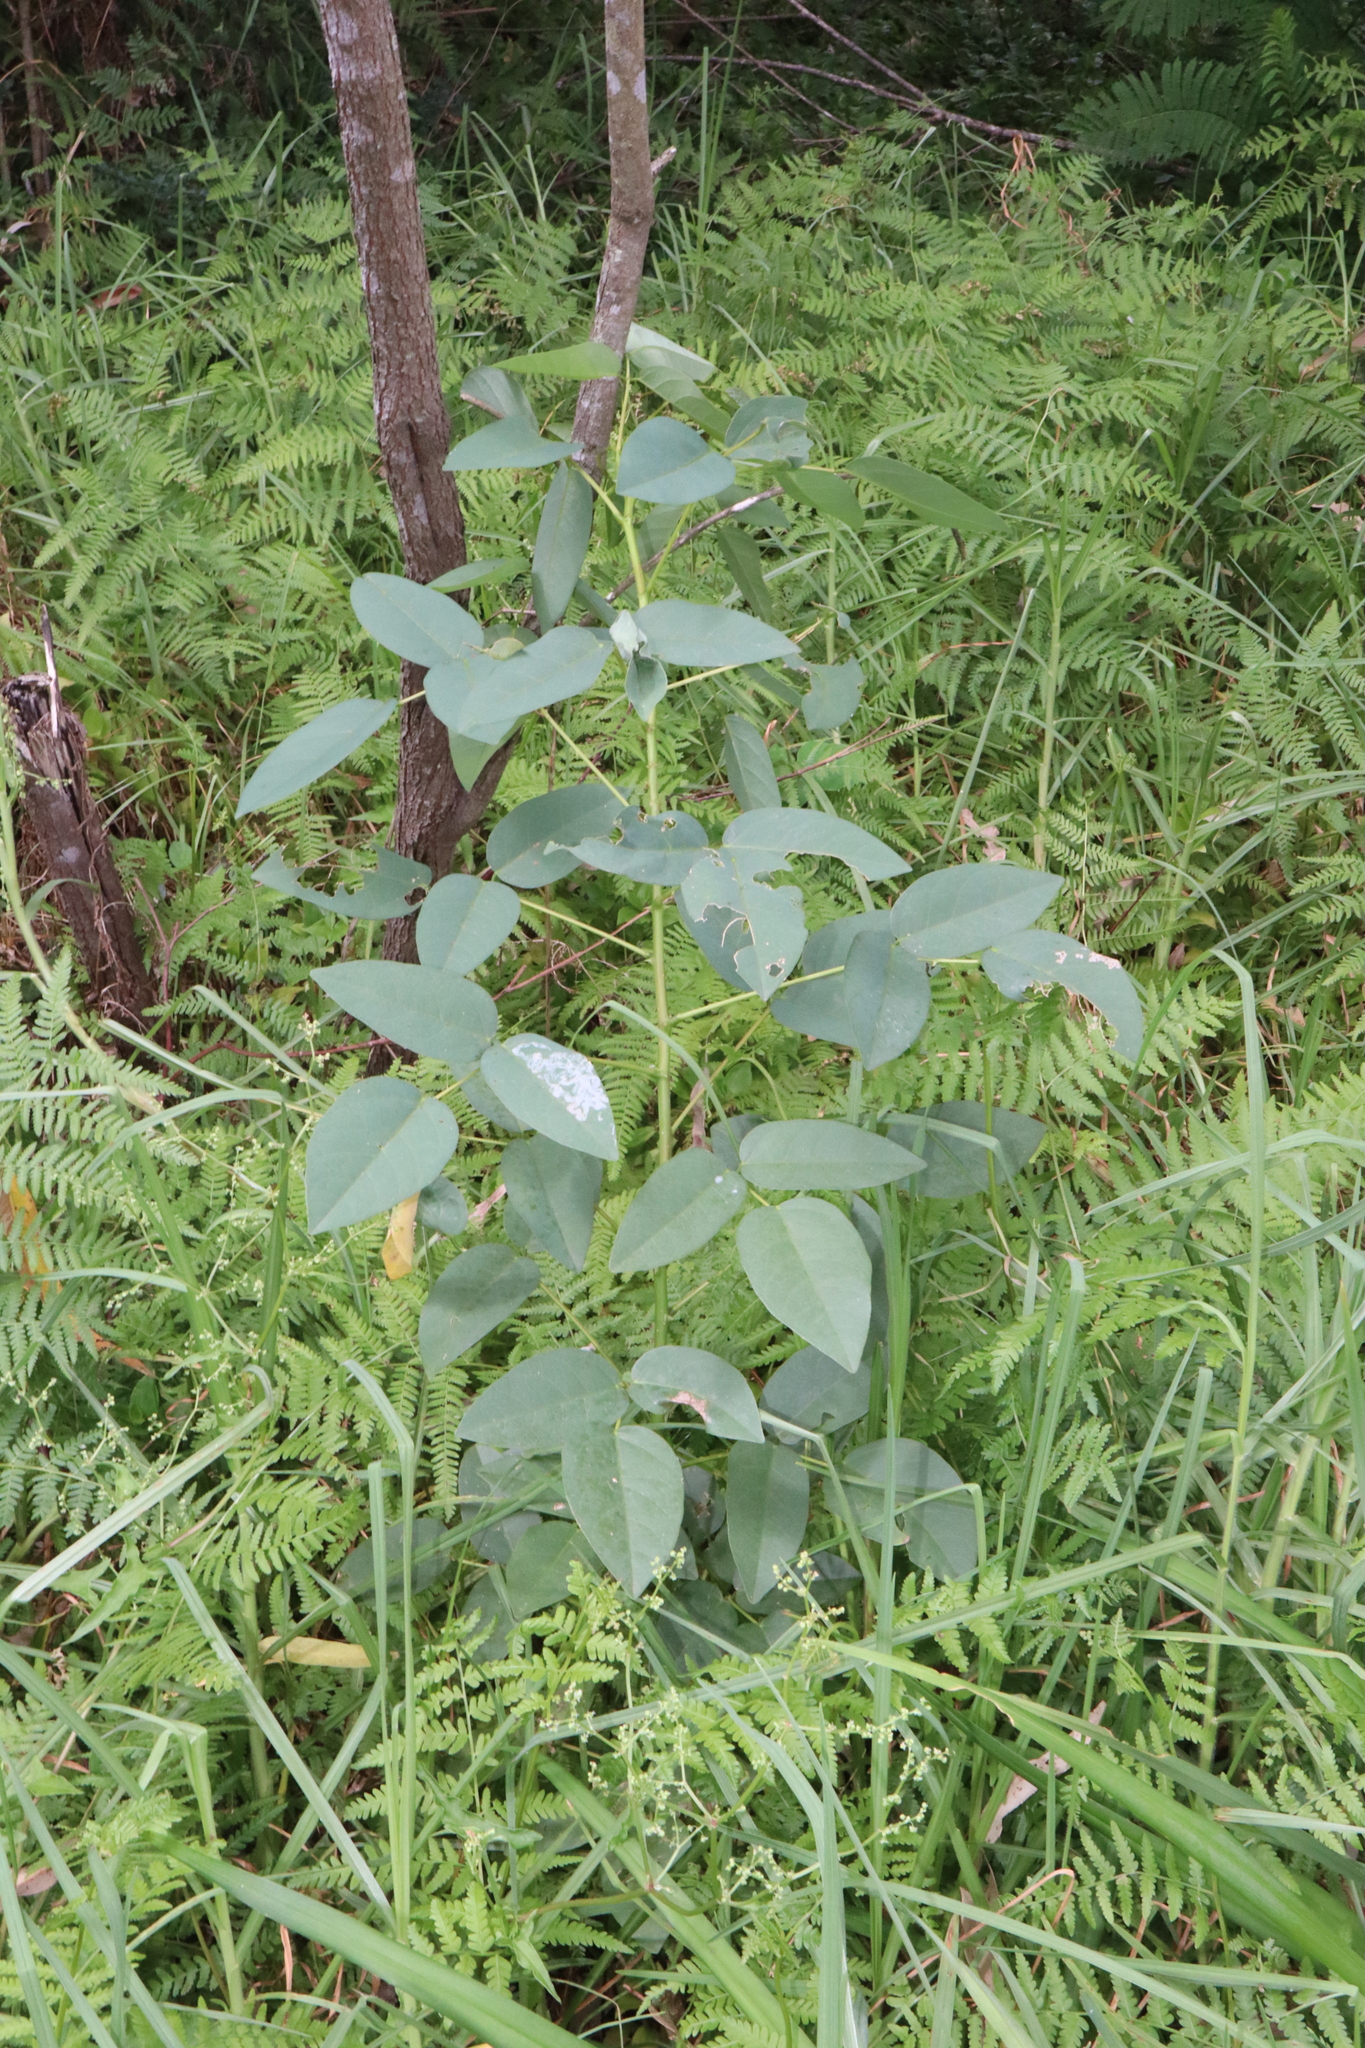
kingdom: Plantae
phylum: Tracheophyta
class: Magnoliopsida
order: Fabales
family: Fabaceae
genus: Erythrina
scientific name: Erythrina crista-galli
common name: Cockspur coral tree
